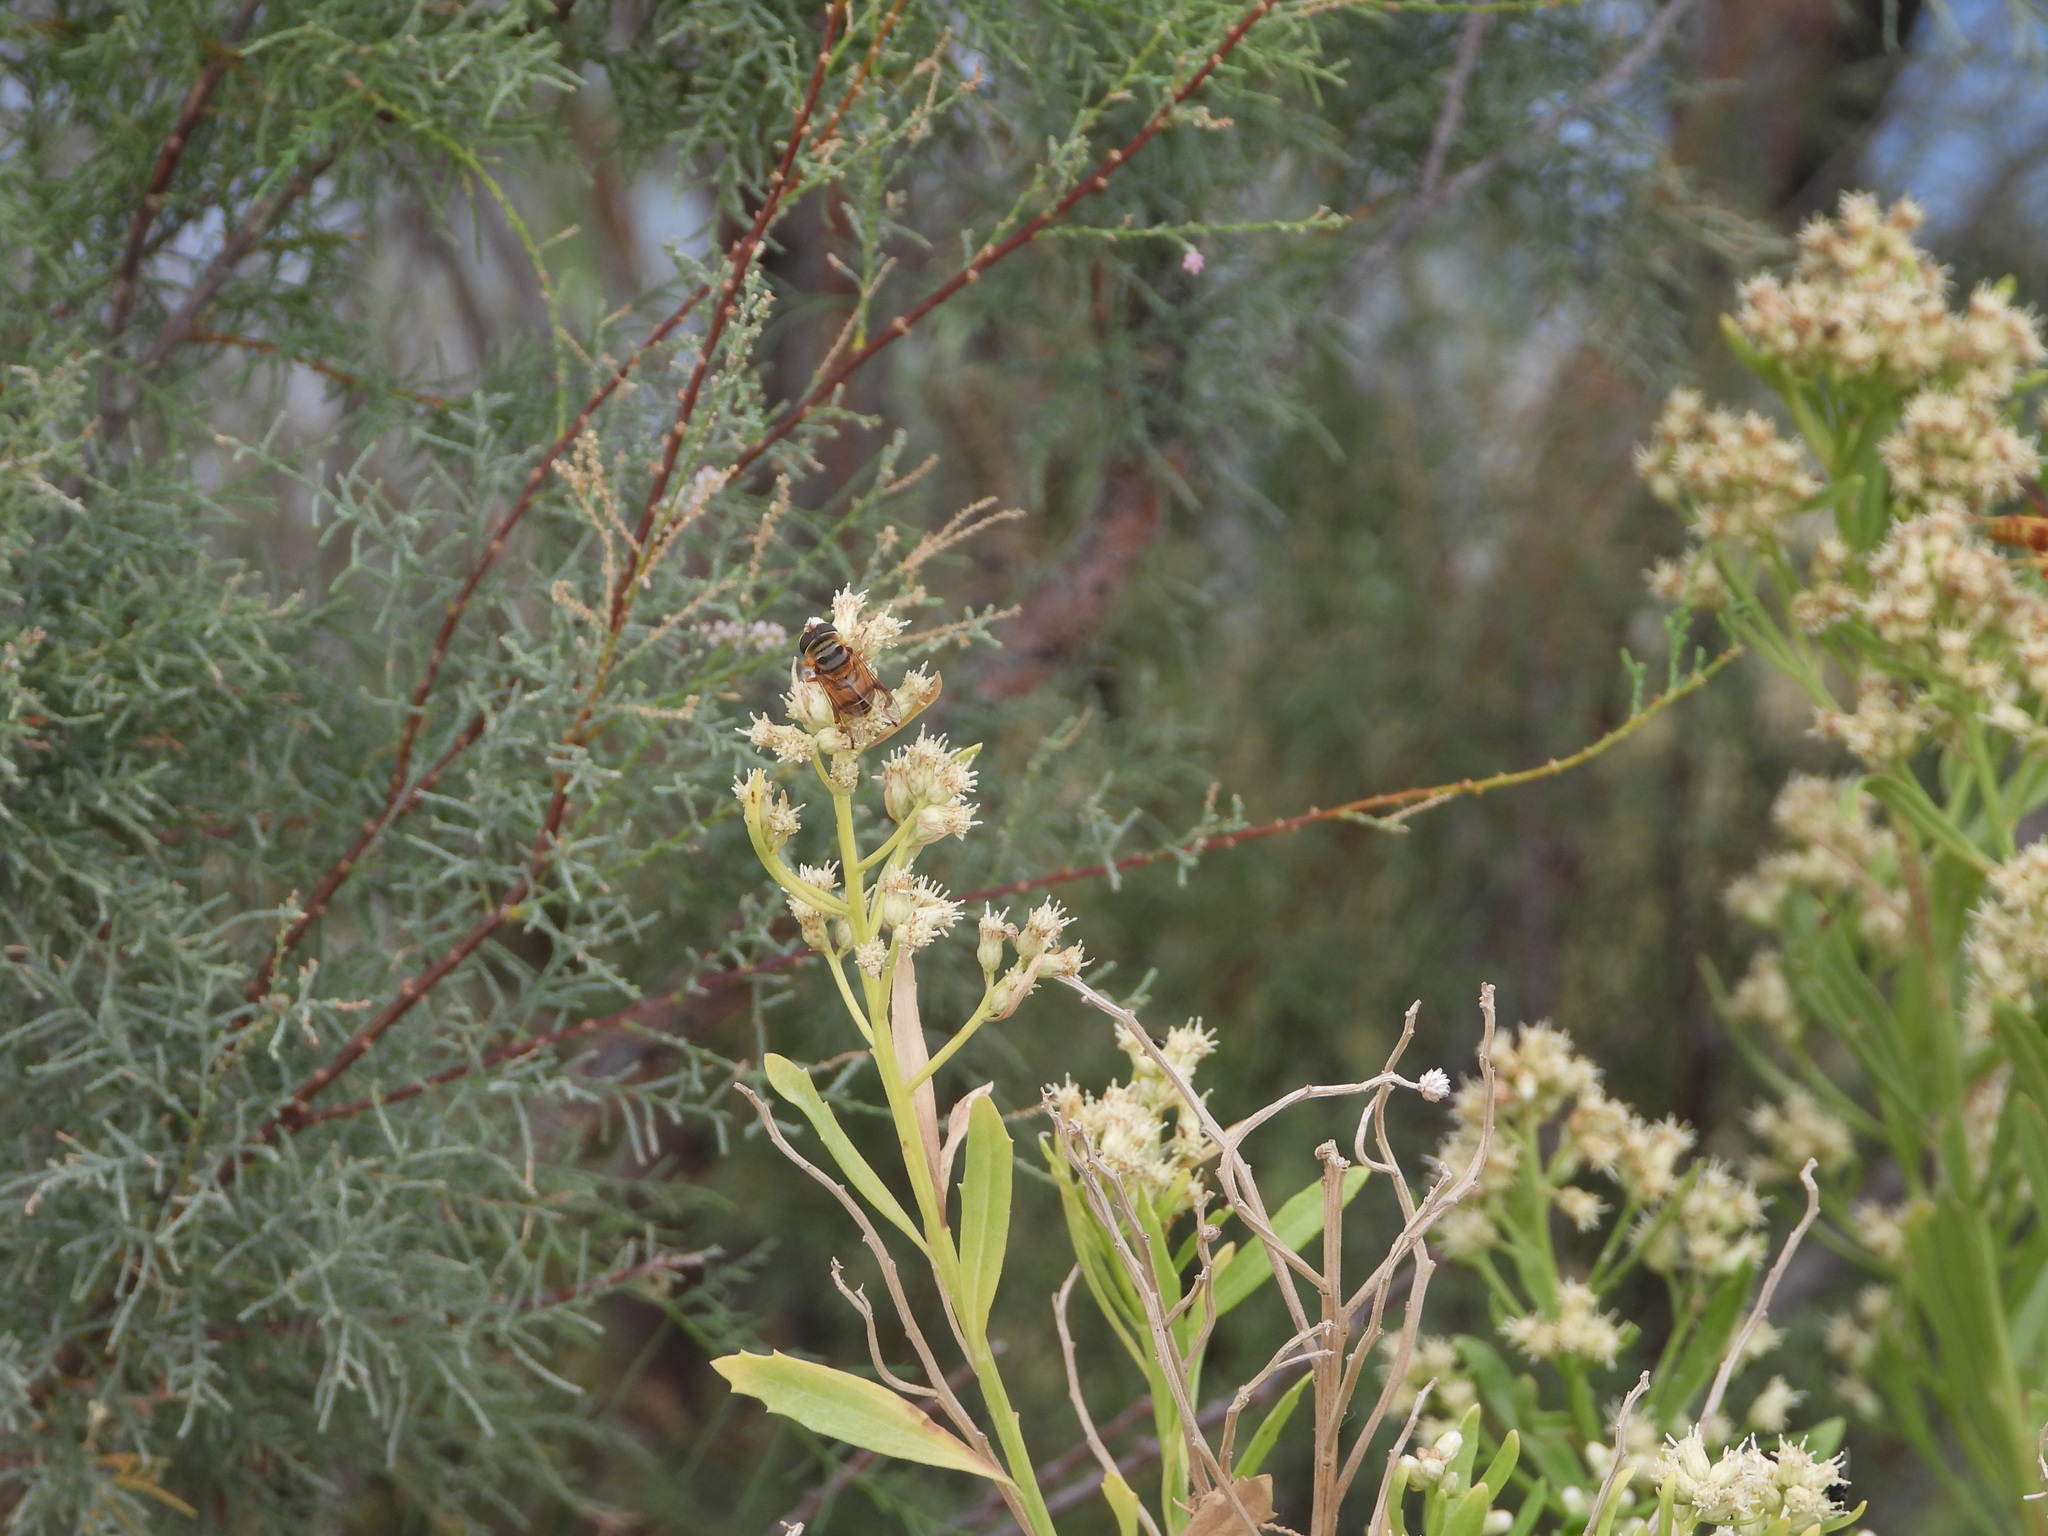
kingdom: Animalia
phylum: Arthropoda
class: Insecta
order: Diptera
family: Syrphidae
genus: Palpada
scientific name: Palpada vinetorum
